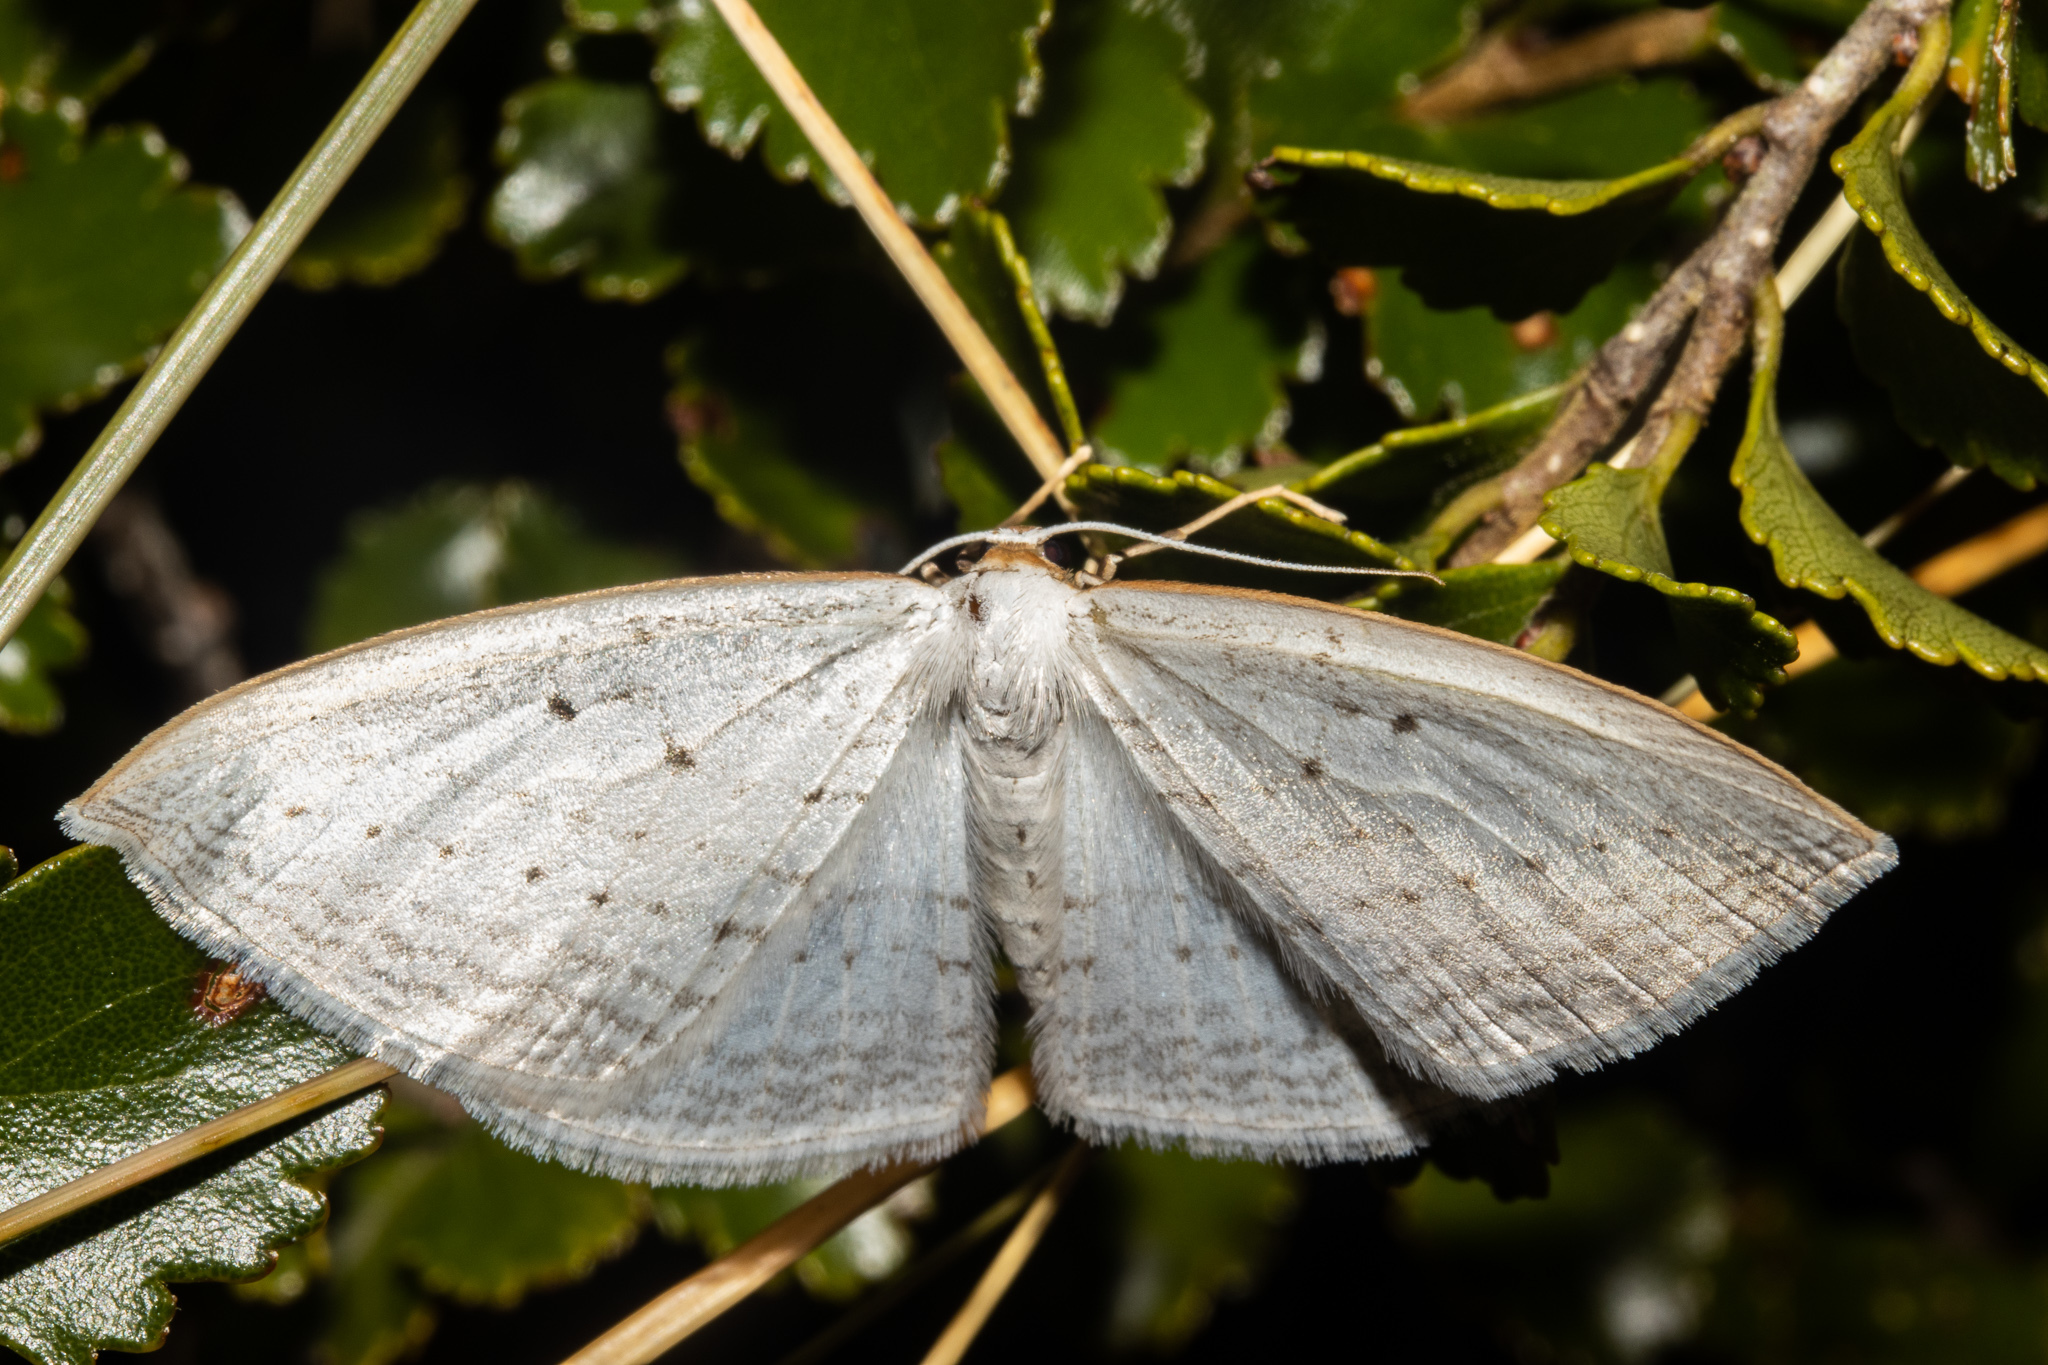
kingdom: Animalia
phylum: Arthropoda
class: Insecta
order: Lepidoptera
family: Geometridae
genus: Orthoclydon
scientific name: Orthoclydon praefectata
